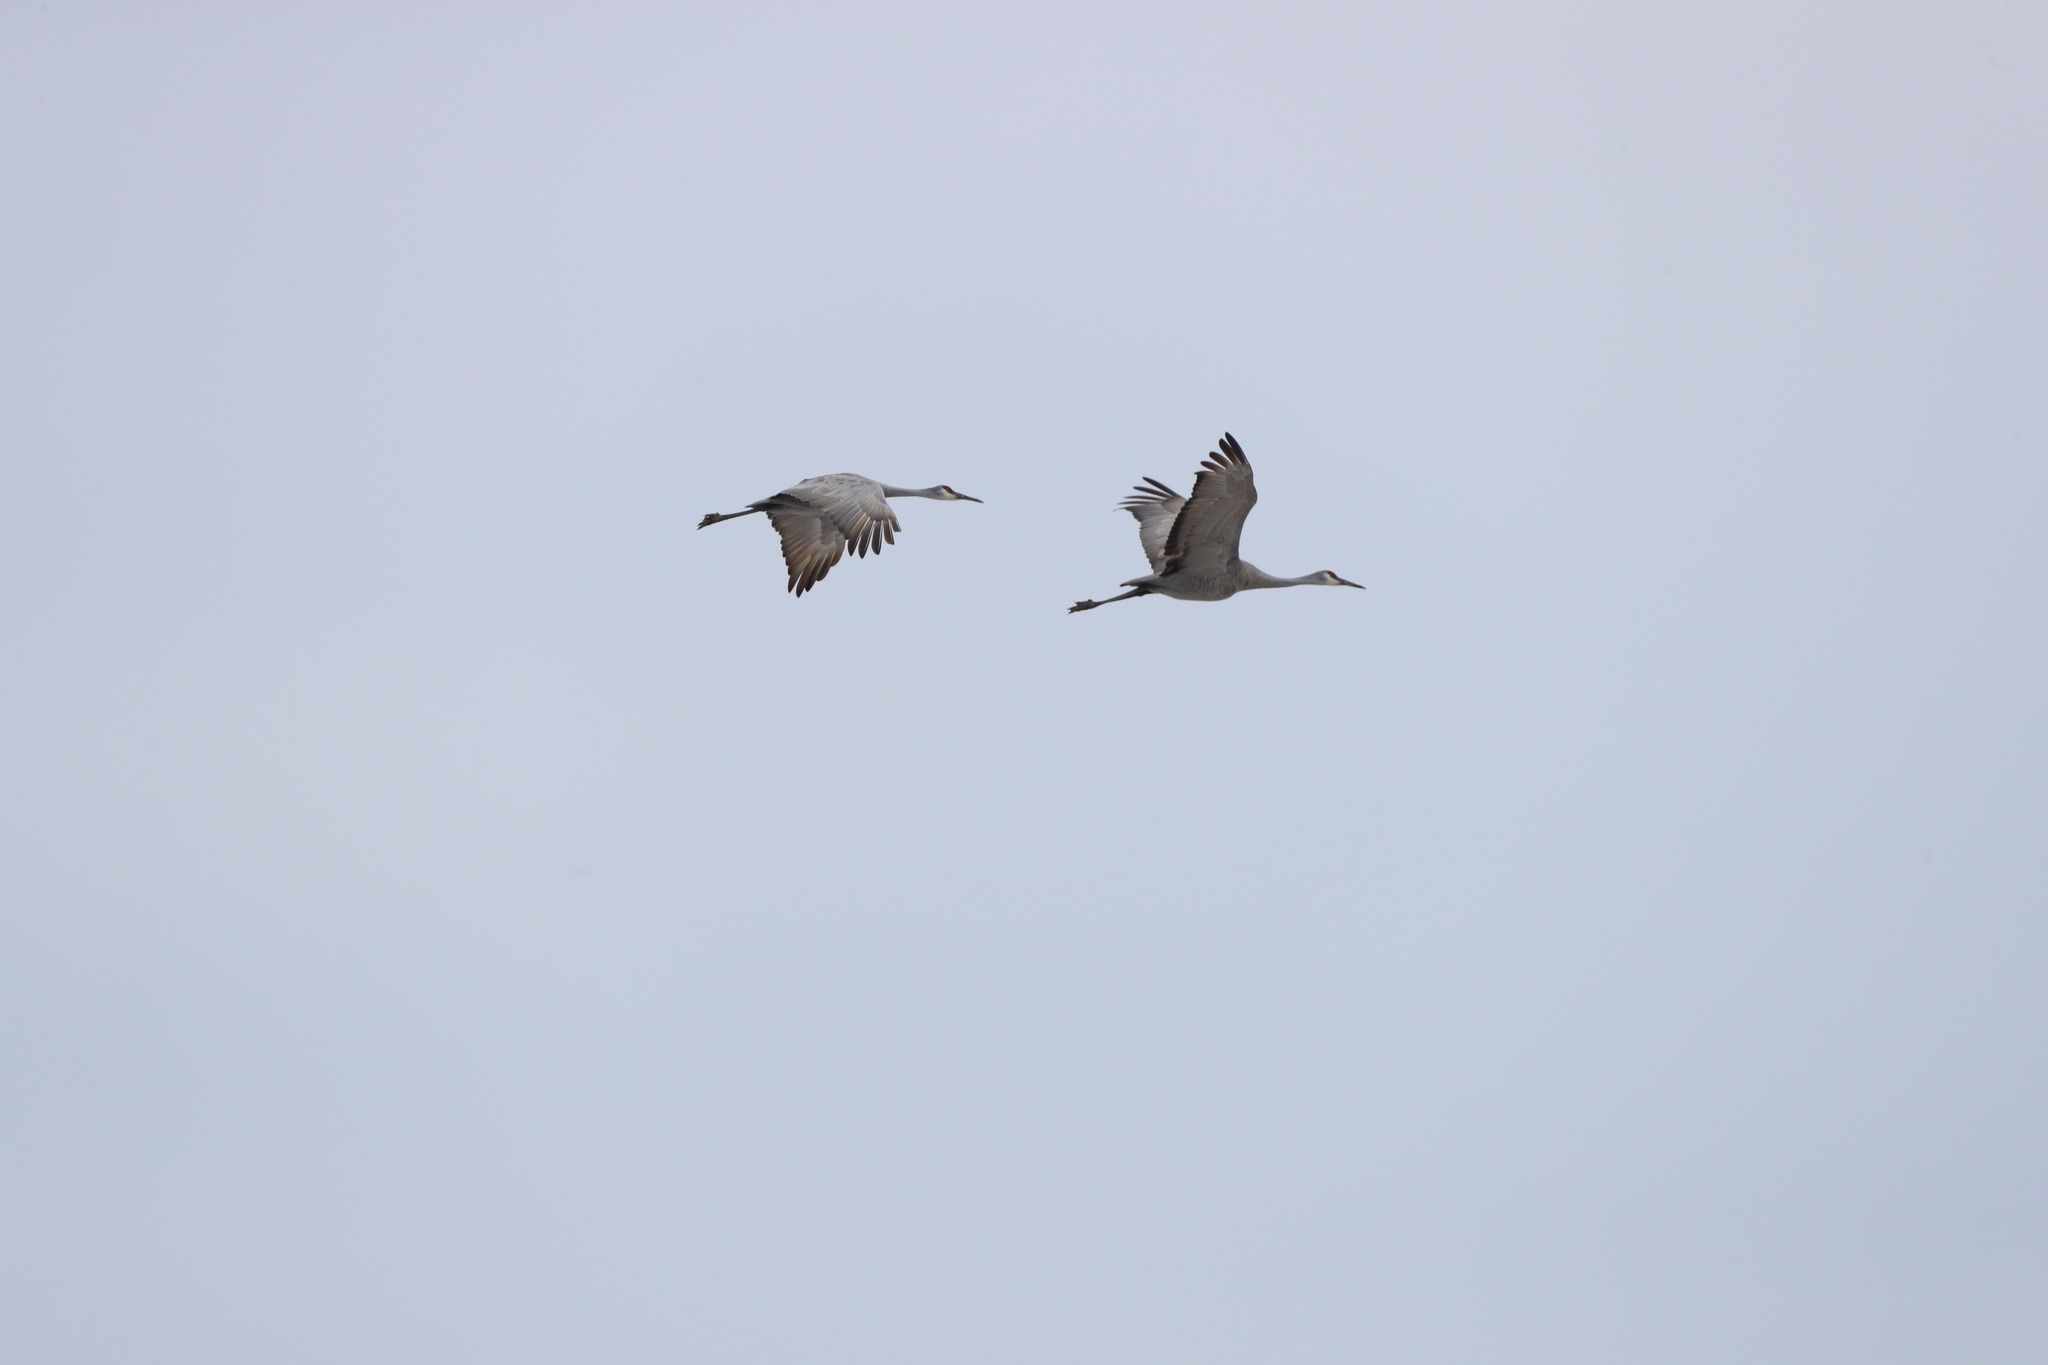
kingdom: Animalia
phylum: Chordata
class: Aves
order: Gruiformes
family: Gruidae
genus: Grus
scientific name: Grus canadensis
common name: Sandhill crane
